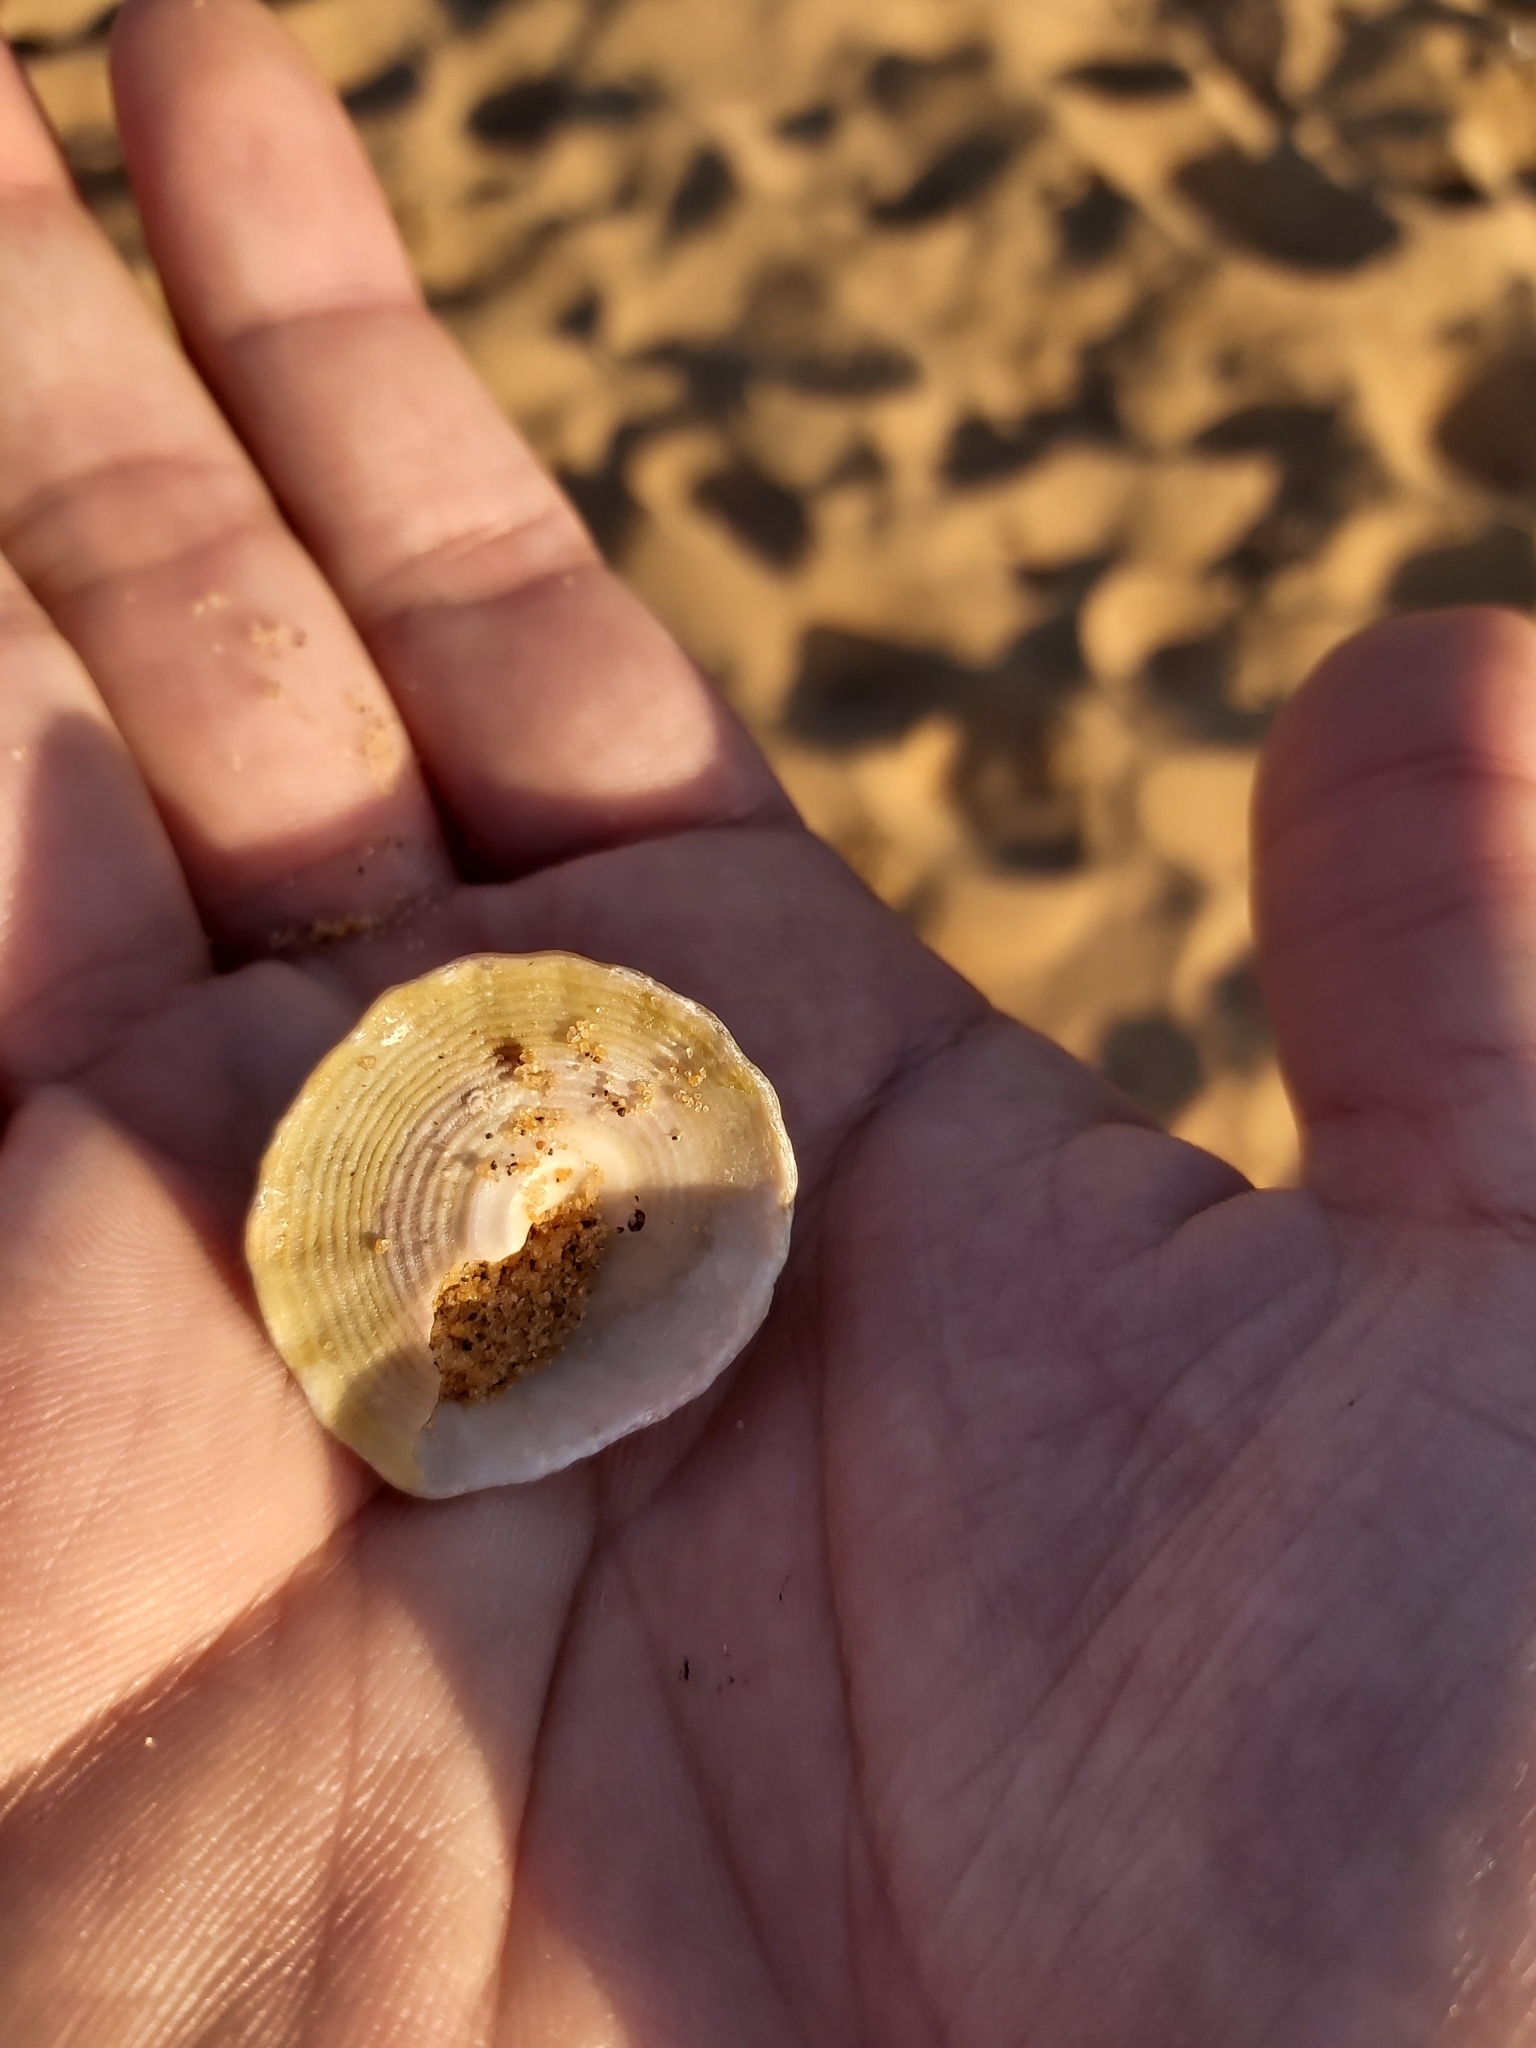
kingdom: Animalia
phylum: Mollusca
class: Gastropoda
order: Trochida
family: Turbinidae
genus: Astralium
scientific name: Astralium tentoriiforme
